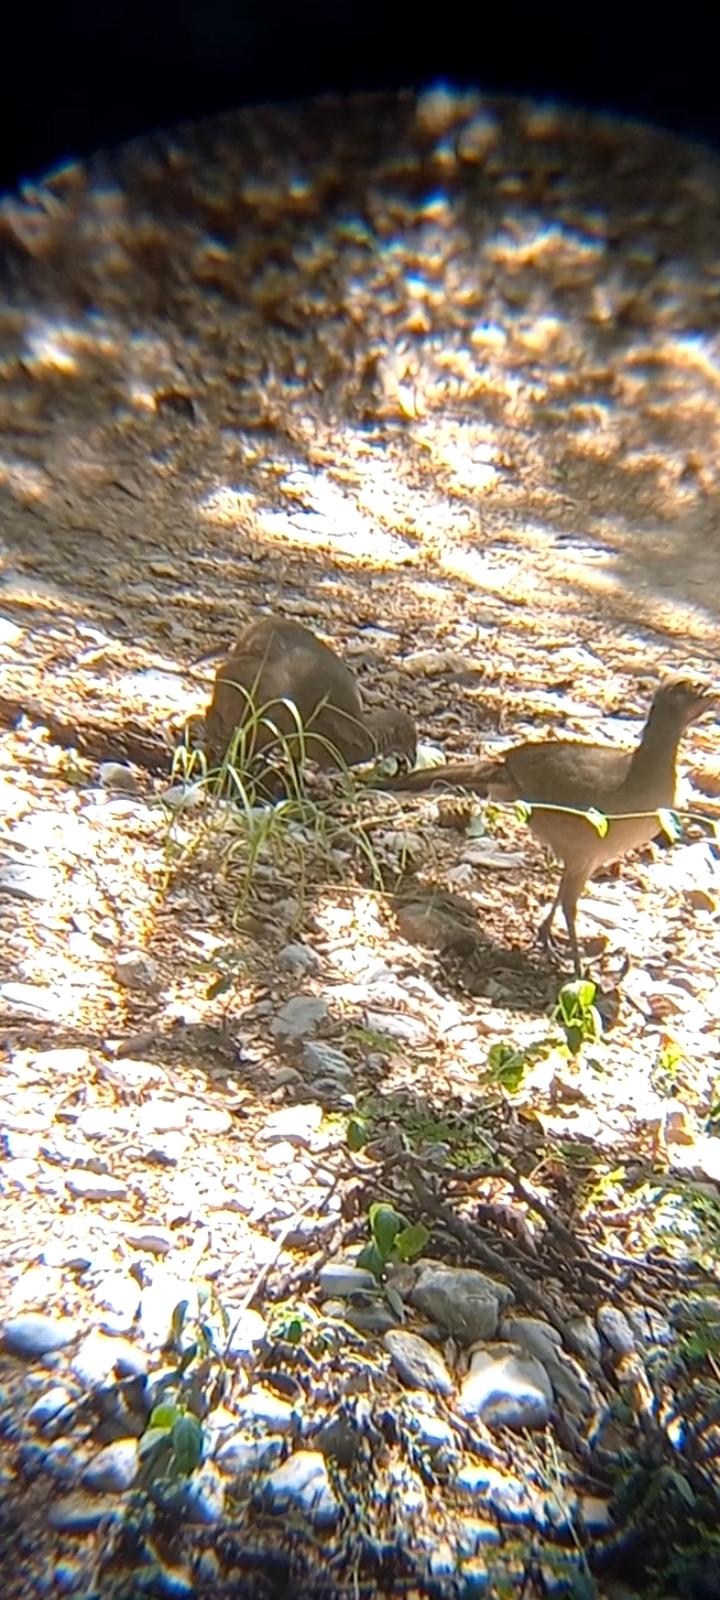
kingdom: Animalia
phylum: Chordata
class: Aves
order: Galliformes
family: Cracidae
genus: Ortalis
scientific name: Ortalis vetula
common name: Plain chachalaca
